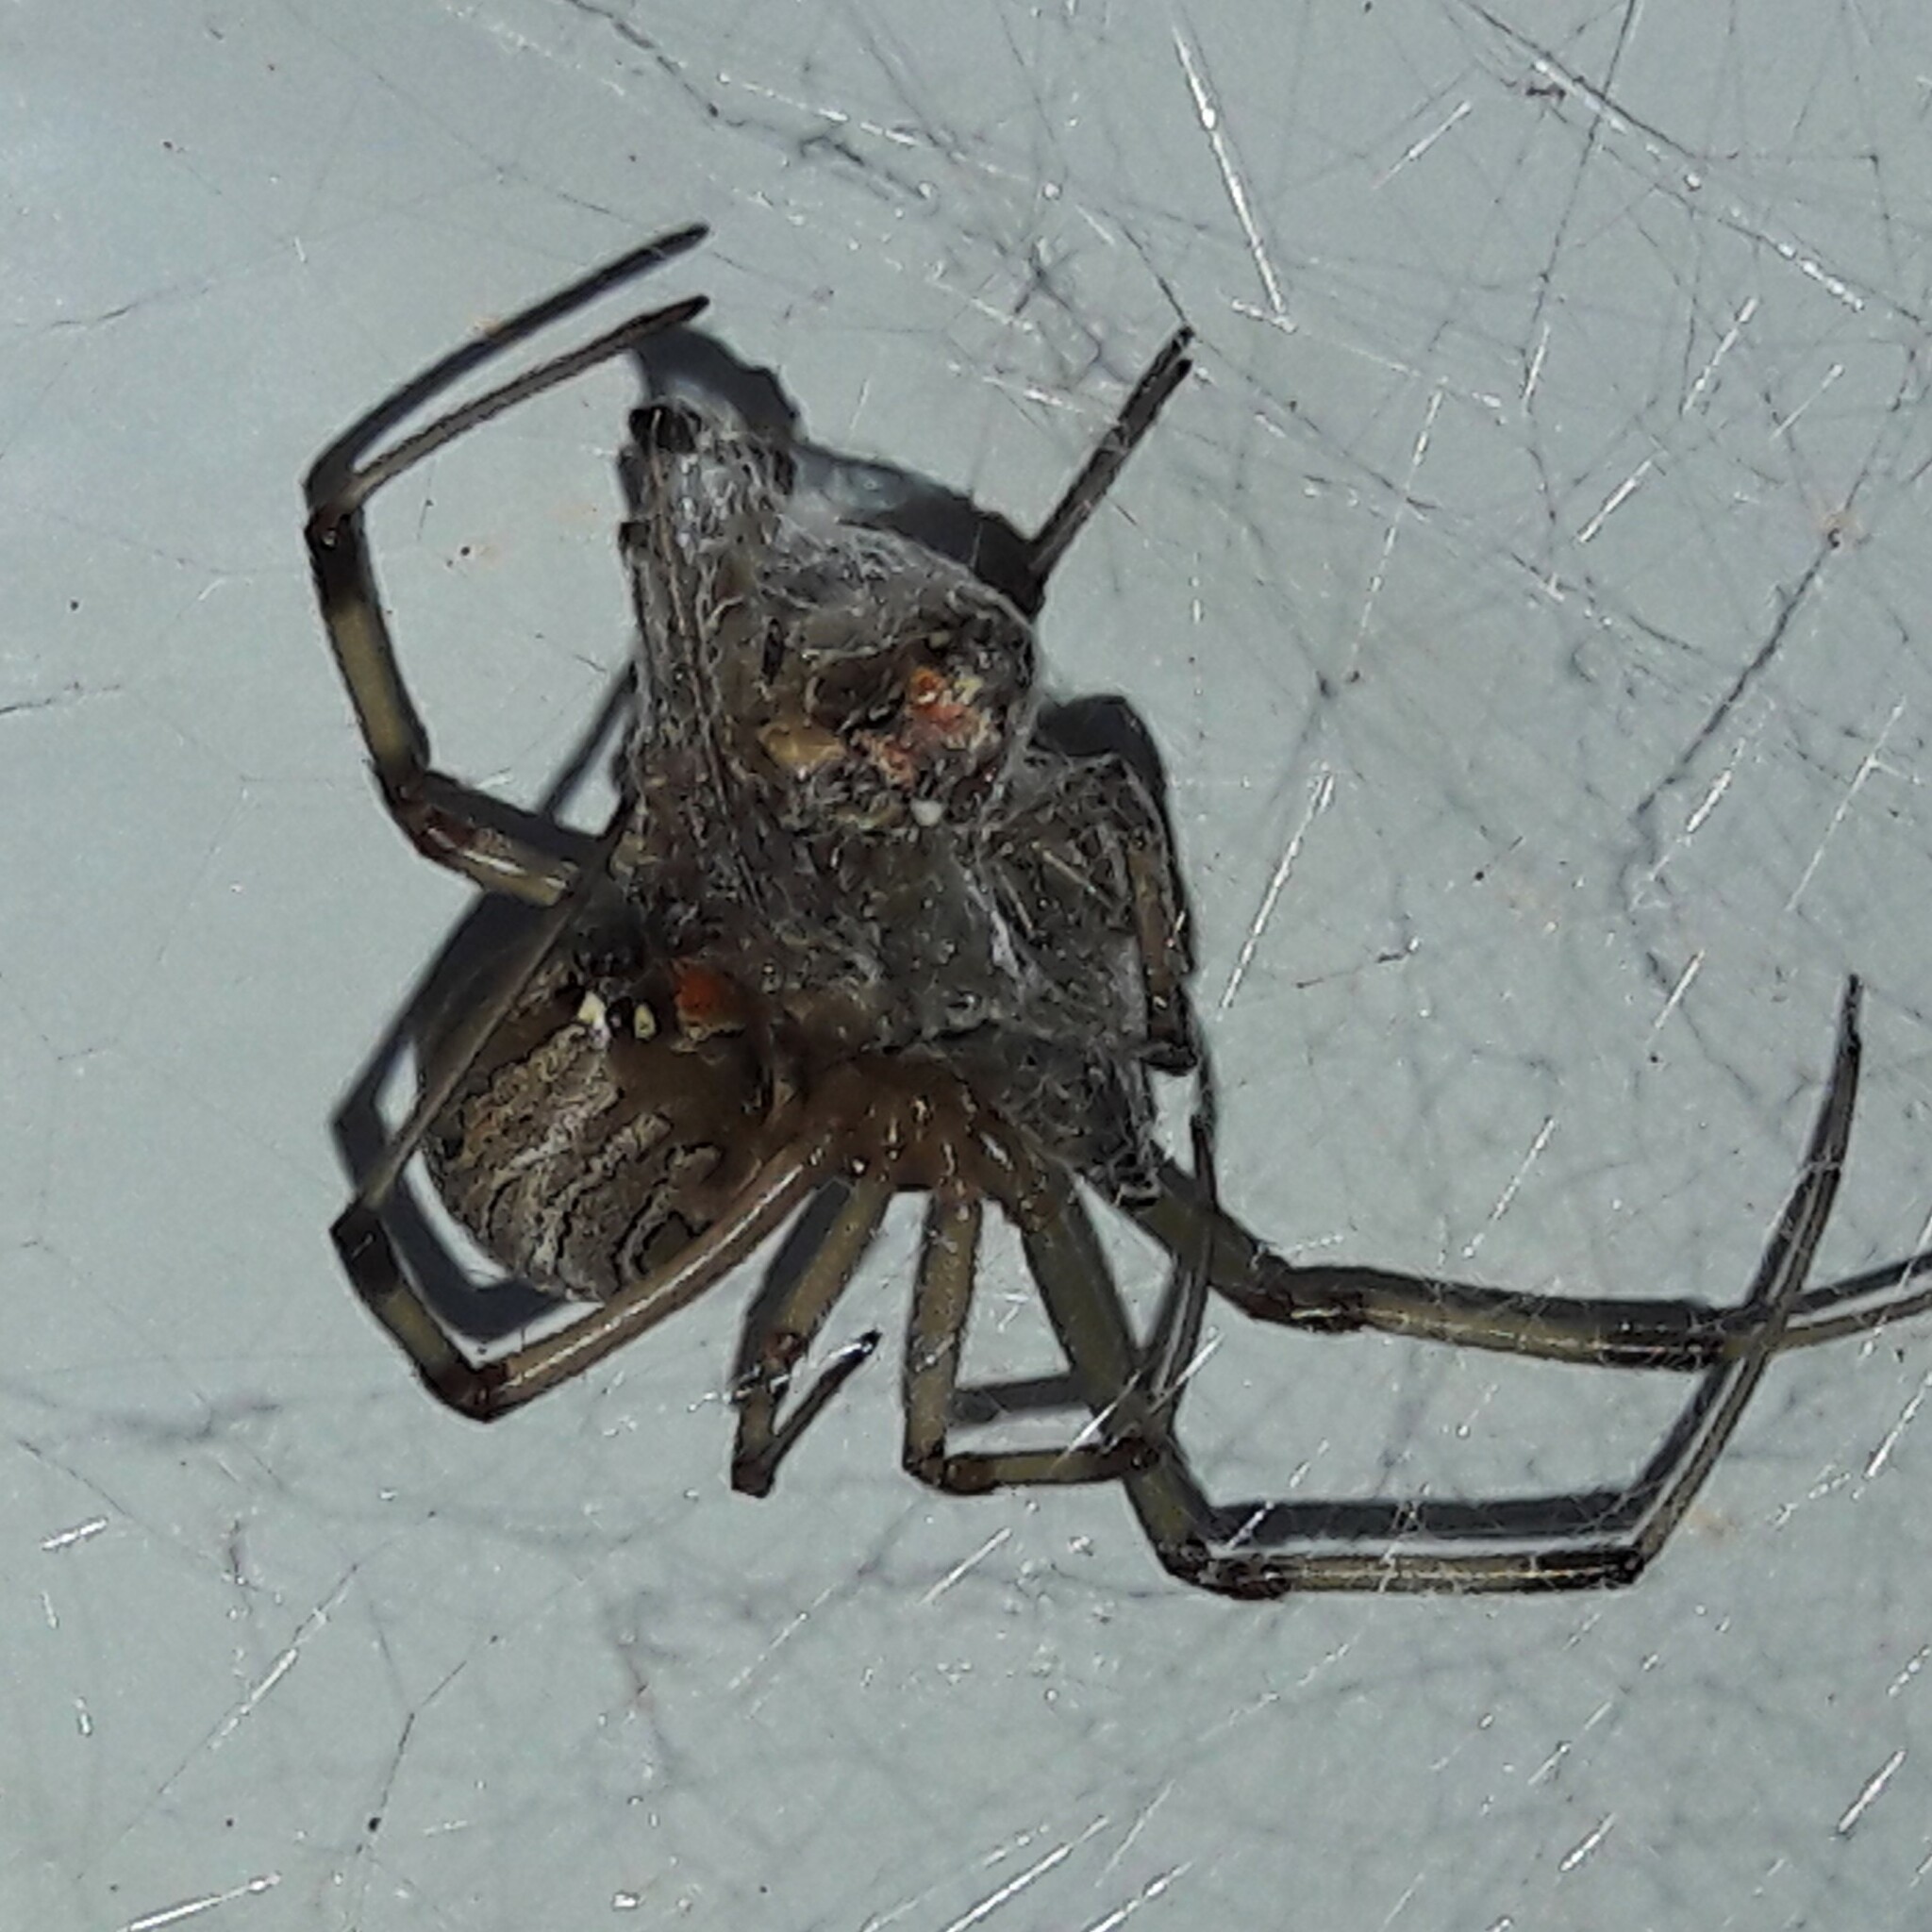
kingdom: Animalia
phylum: Arthropoda
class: Arachnida
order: Araneae
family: Theridiidae
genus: Latrodectus
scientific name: Latrodectus geometricus
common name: Brown widow spider
